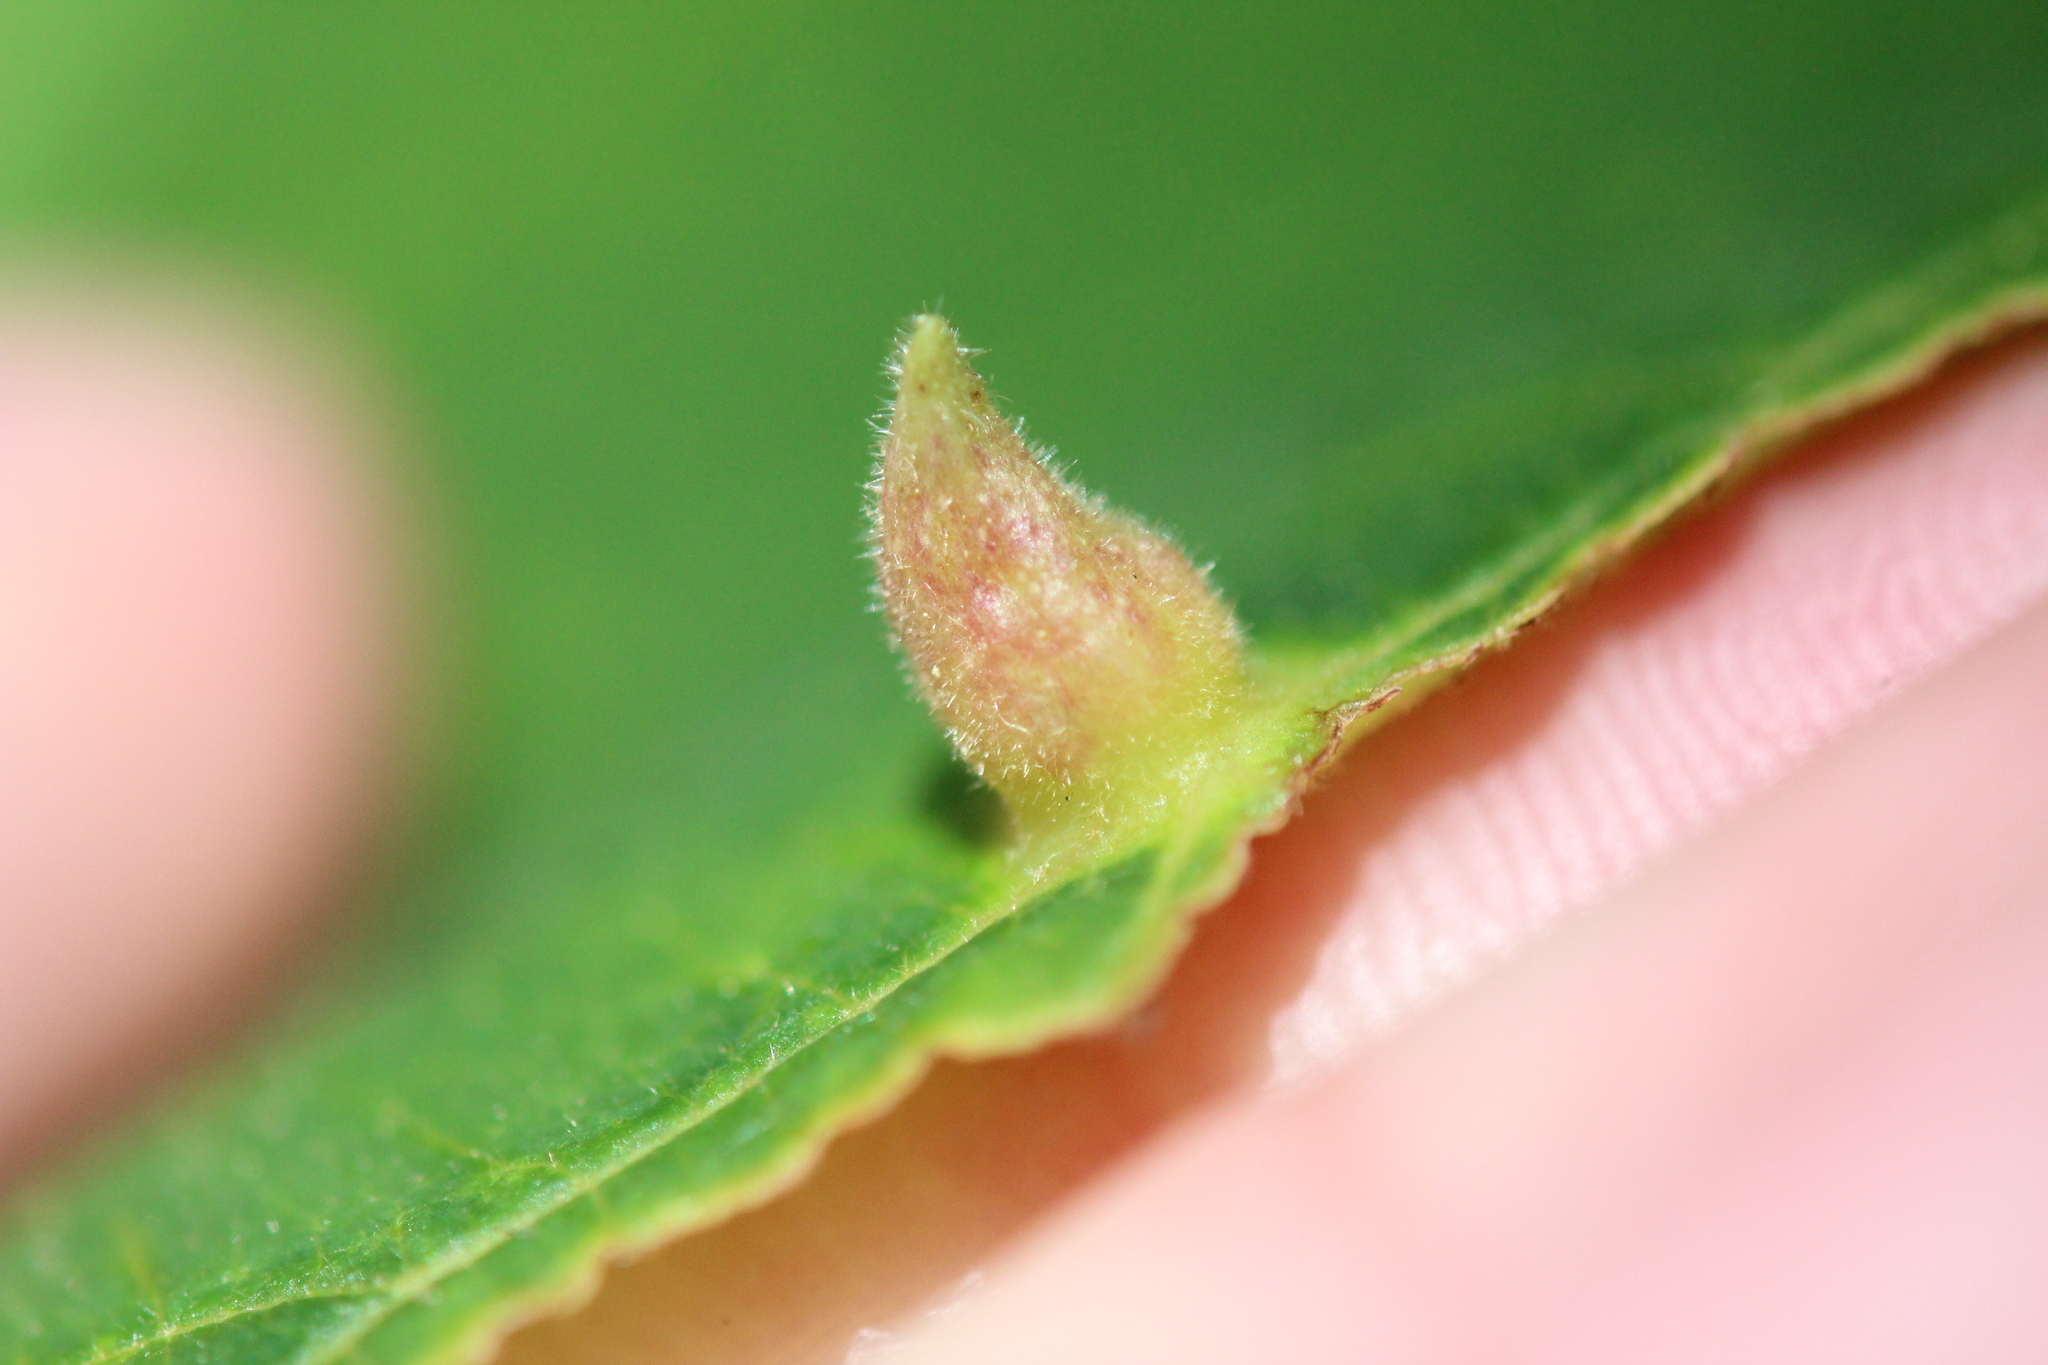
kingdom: Animalia
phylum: Arthropoda
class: Insecta
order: Hemiptera
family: Aphididae
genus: Hormaphis
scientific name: Hormaphis hamamelidis
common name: Witch-hazel cone gall aphid
